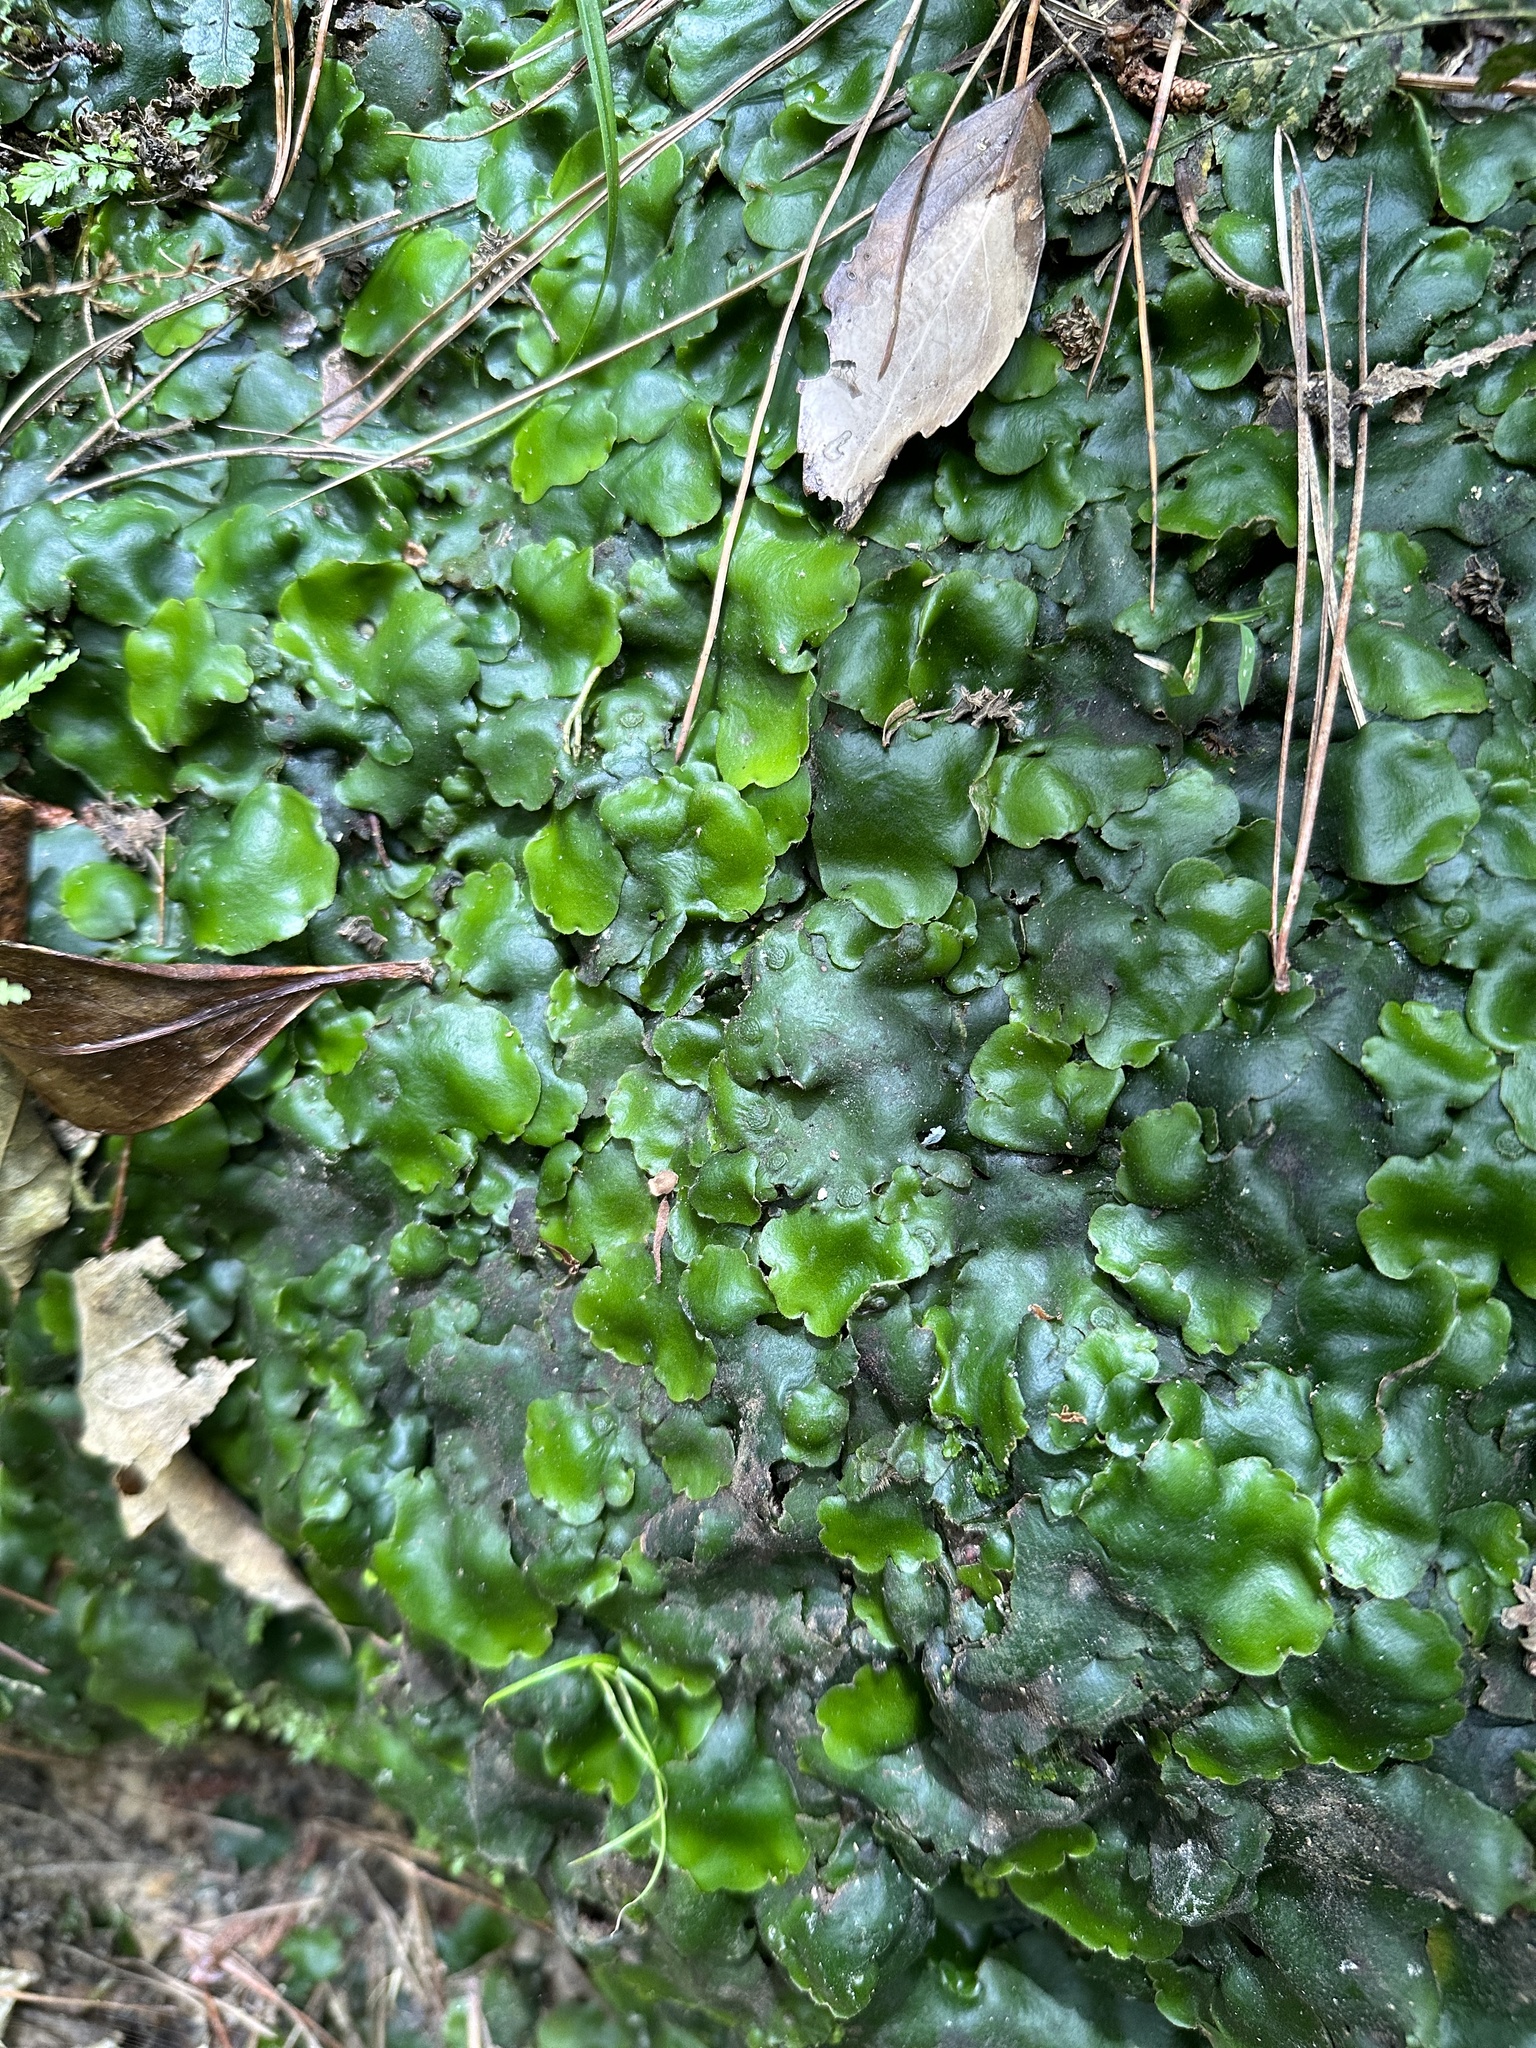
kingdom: Plantae
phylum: Marchantiophyta
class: Marchantiopsida
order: Marchantiales
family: Monocleaceae
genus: Monoclea
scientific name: Monoclea forsteri
